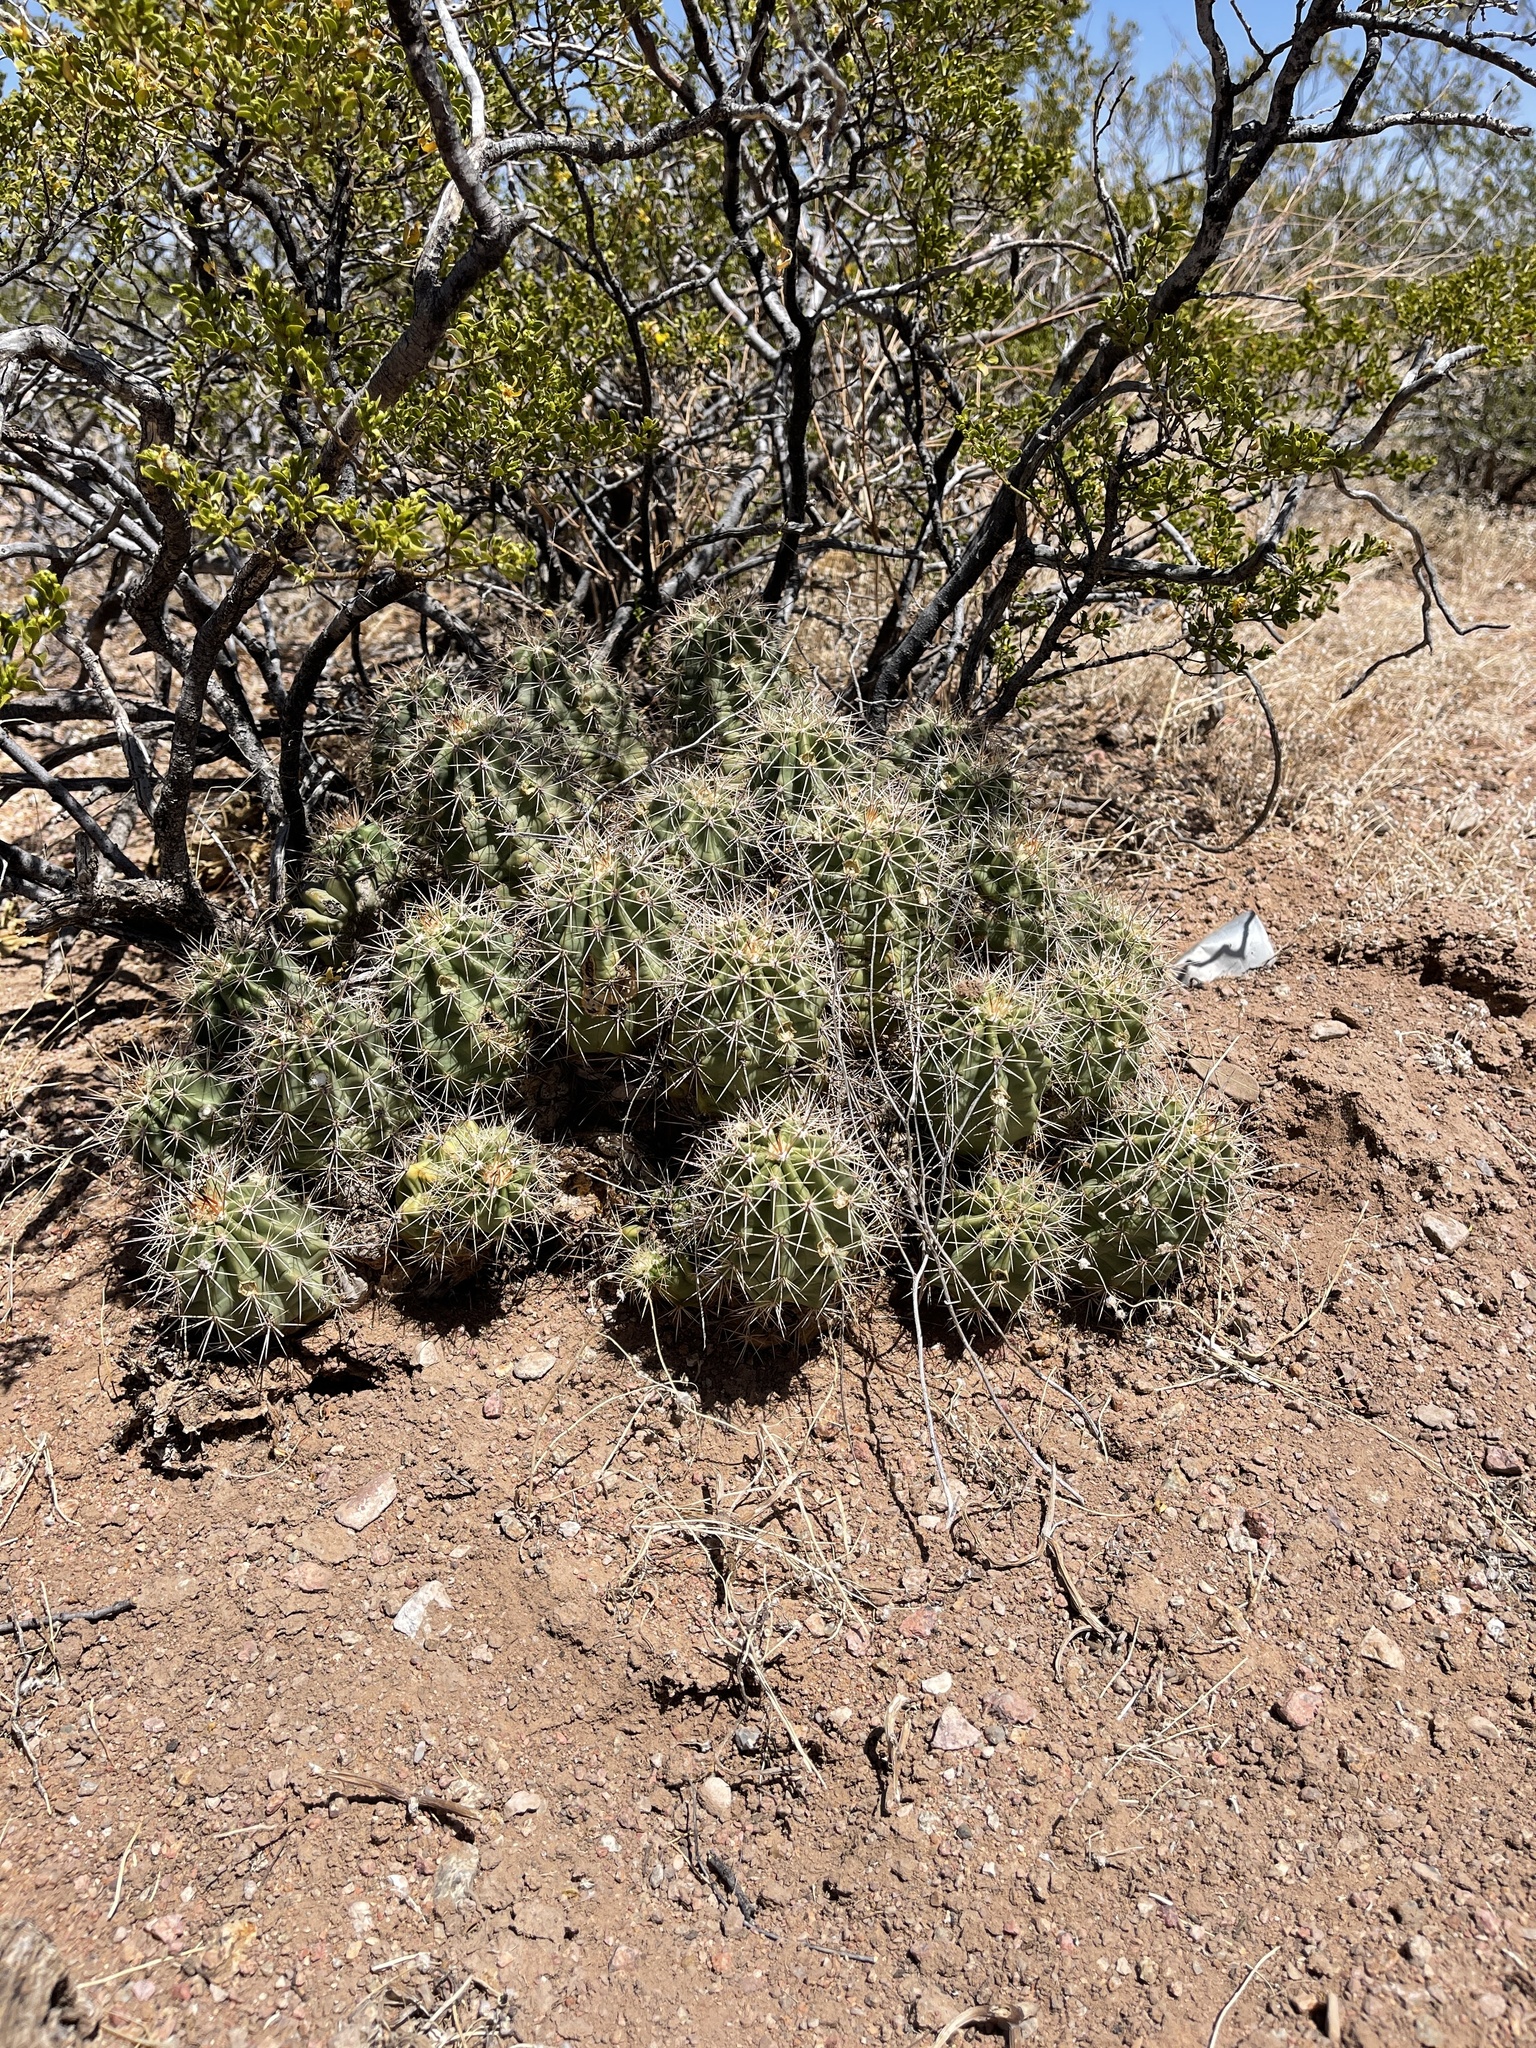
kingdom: Plantae
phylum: Tracheophyta
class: Magnoliopsida
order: Caryophyllales
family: Cactaceae
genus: Echinocereus
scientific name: Echinocereus coccineus
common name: Scarlet hedgehog cactus
